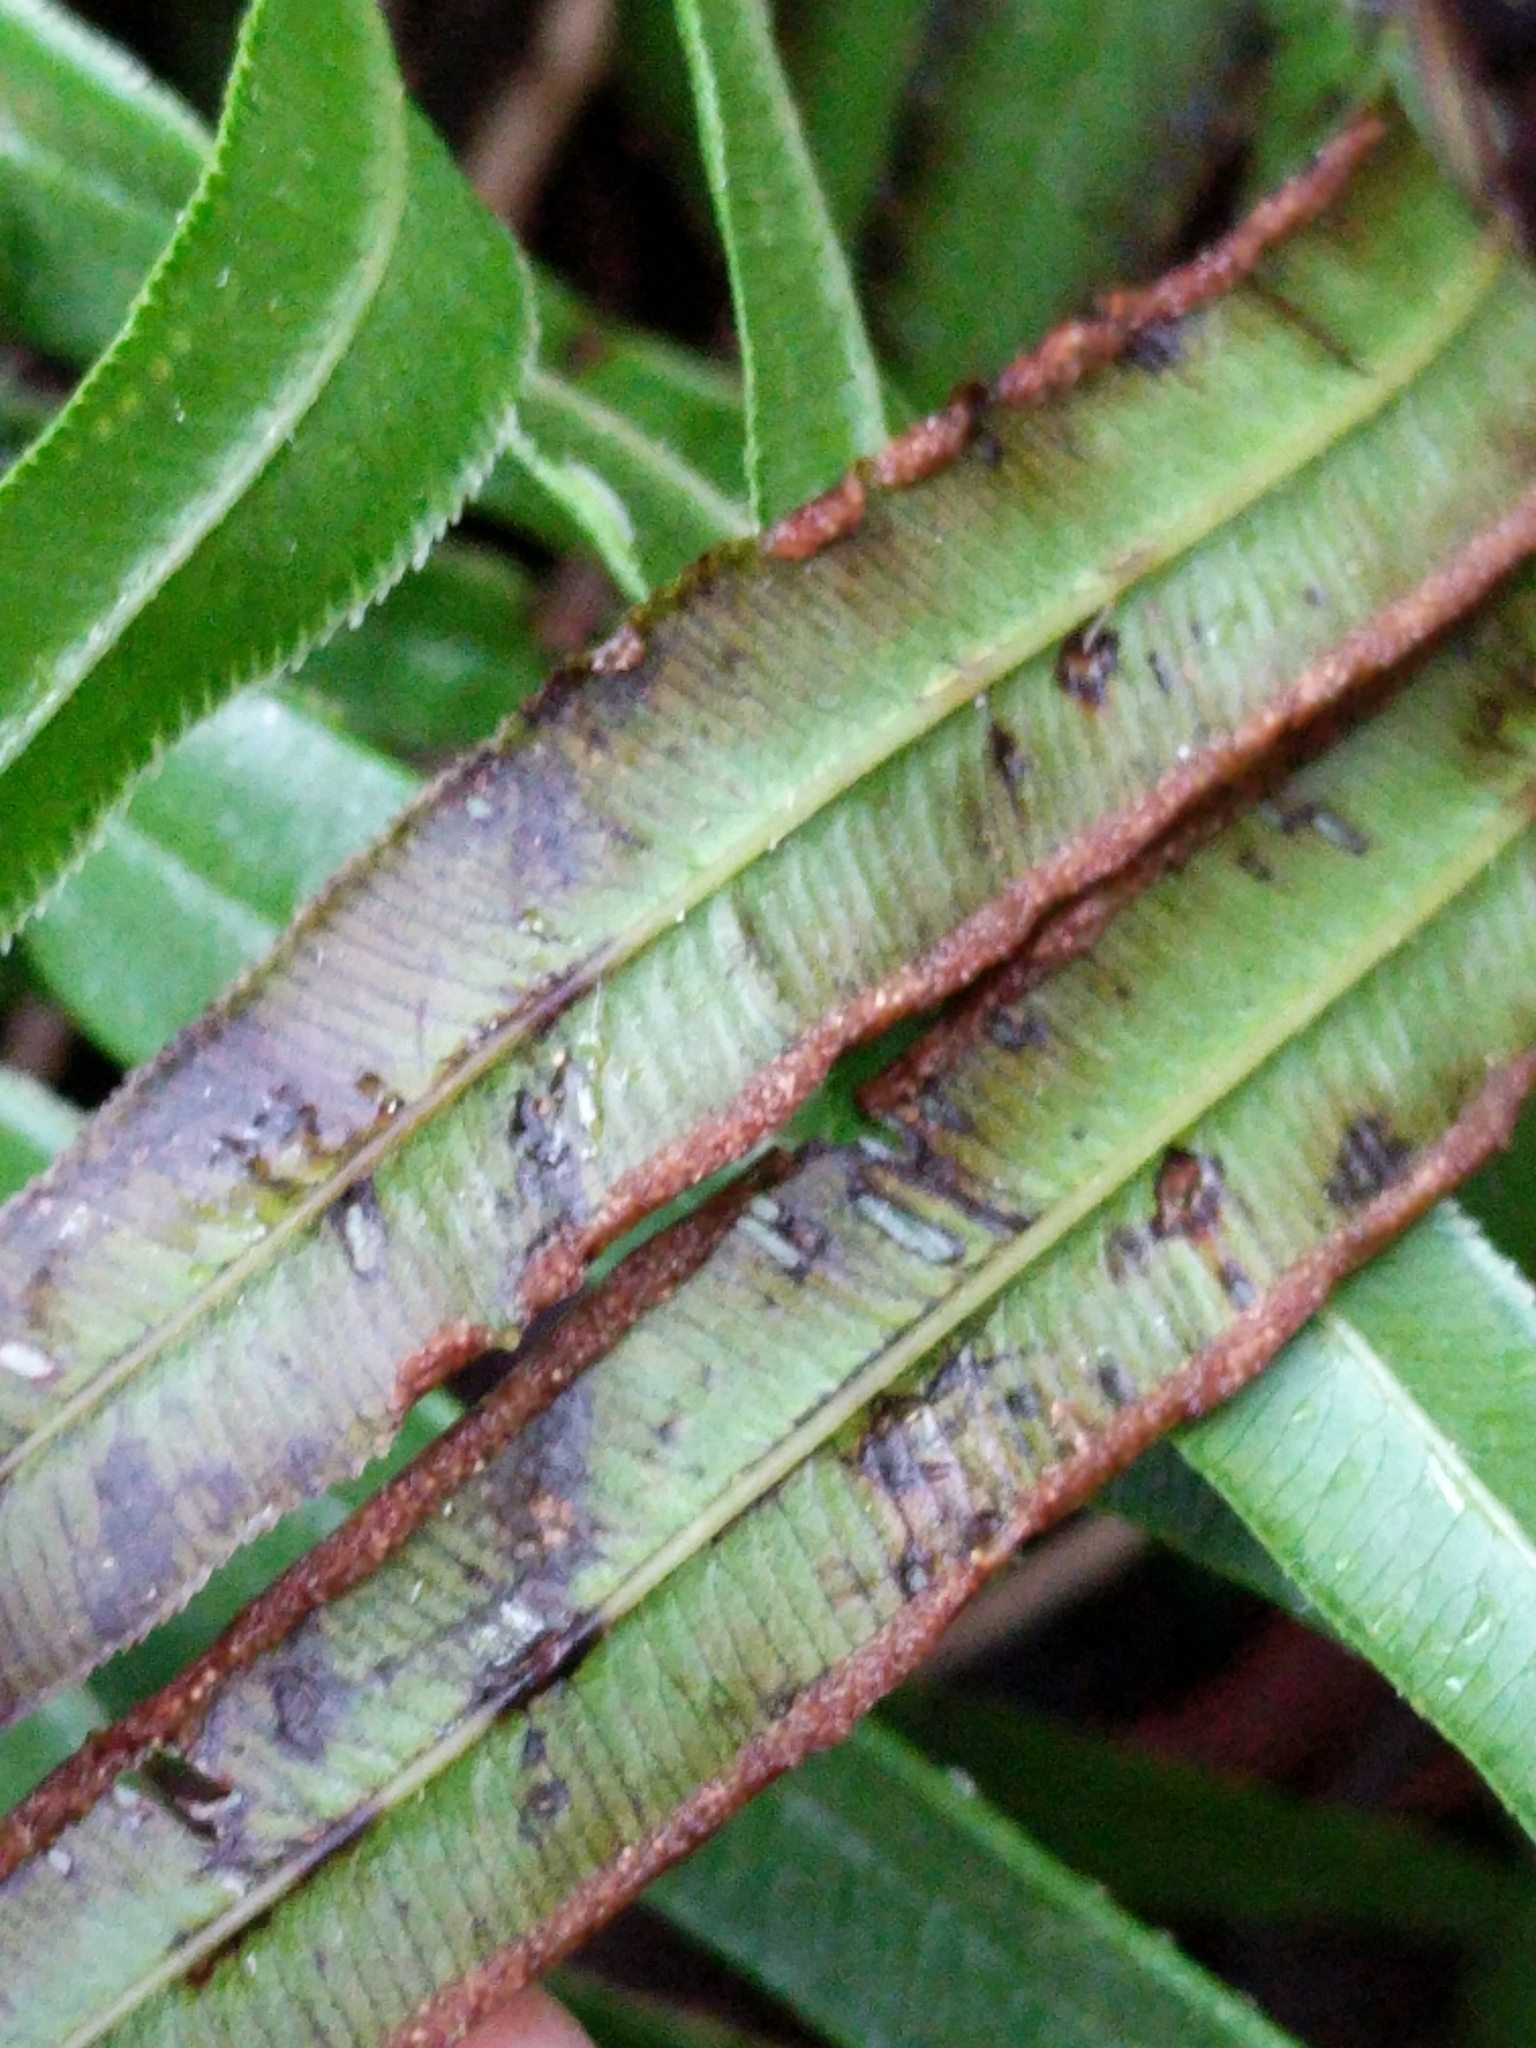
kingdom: Plantae
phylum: Tracheophyta
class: Polypodiopsida
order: Polypodiales
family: Pteridaceae
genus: Pteris
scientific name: Pteris vittata
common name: Ladder brake
